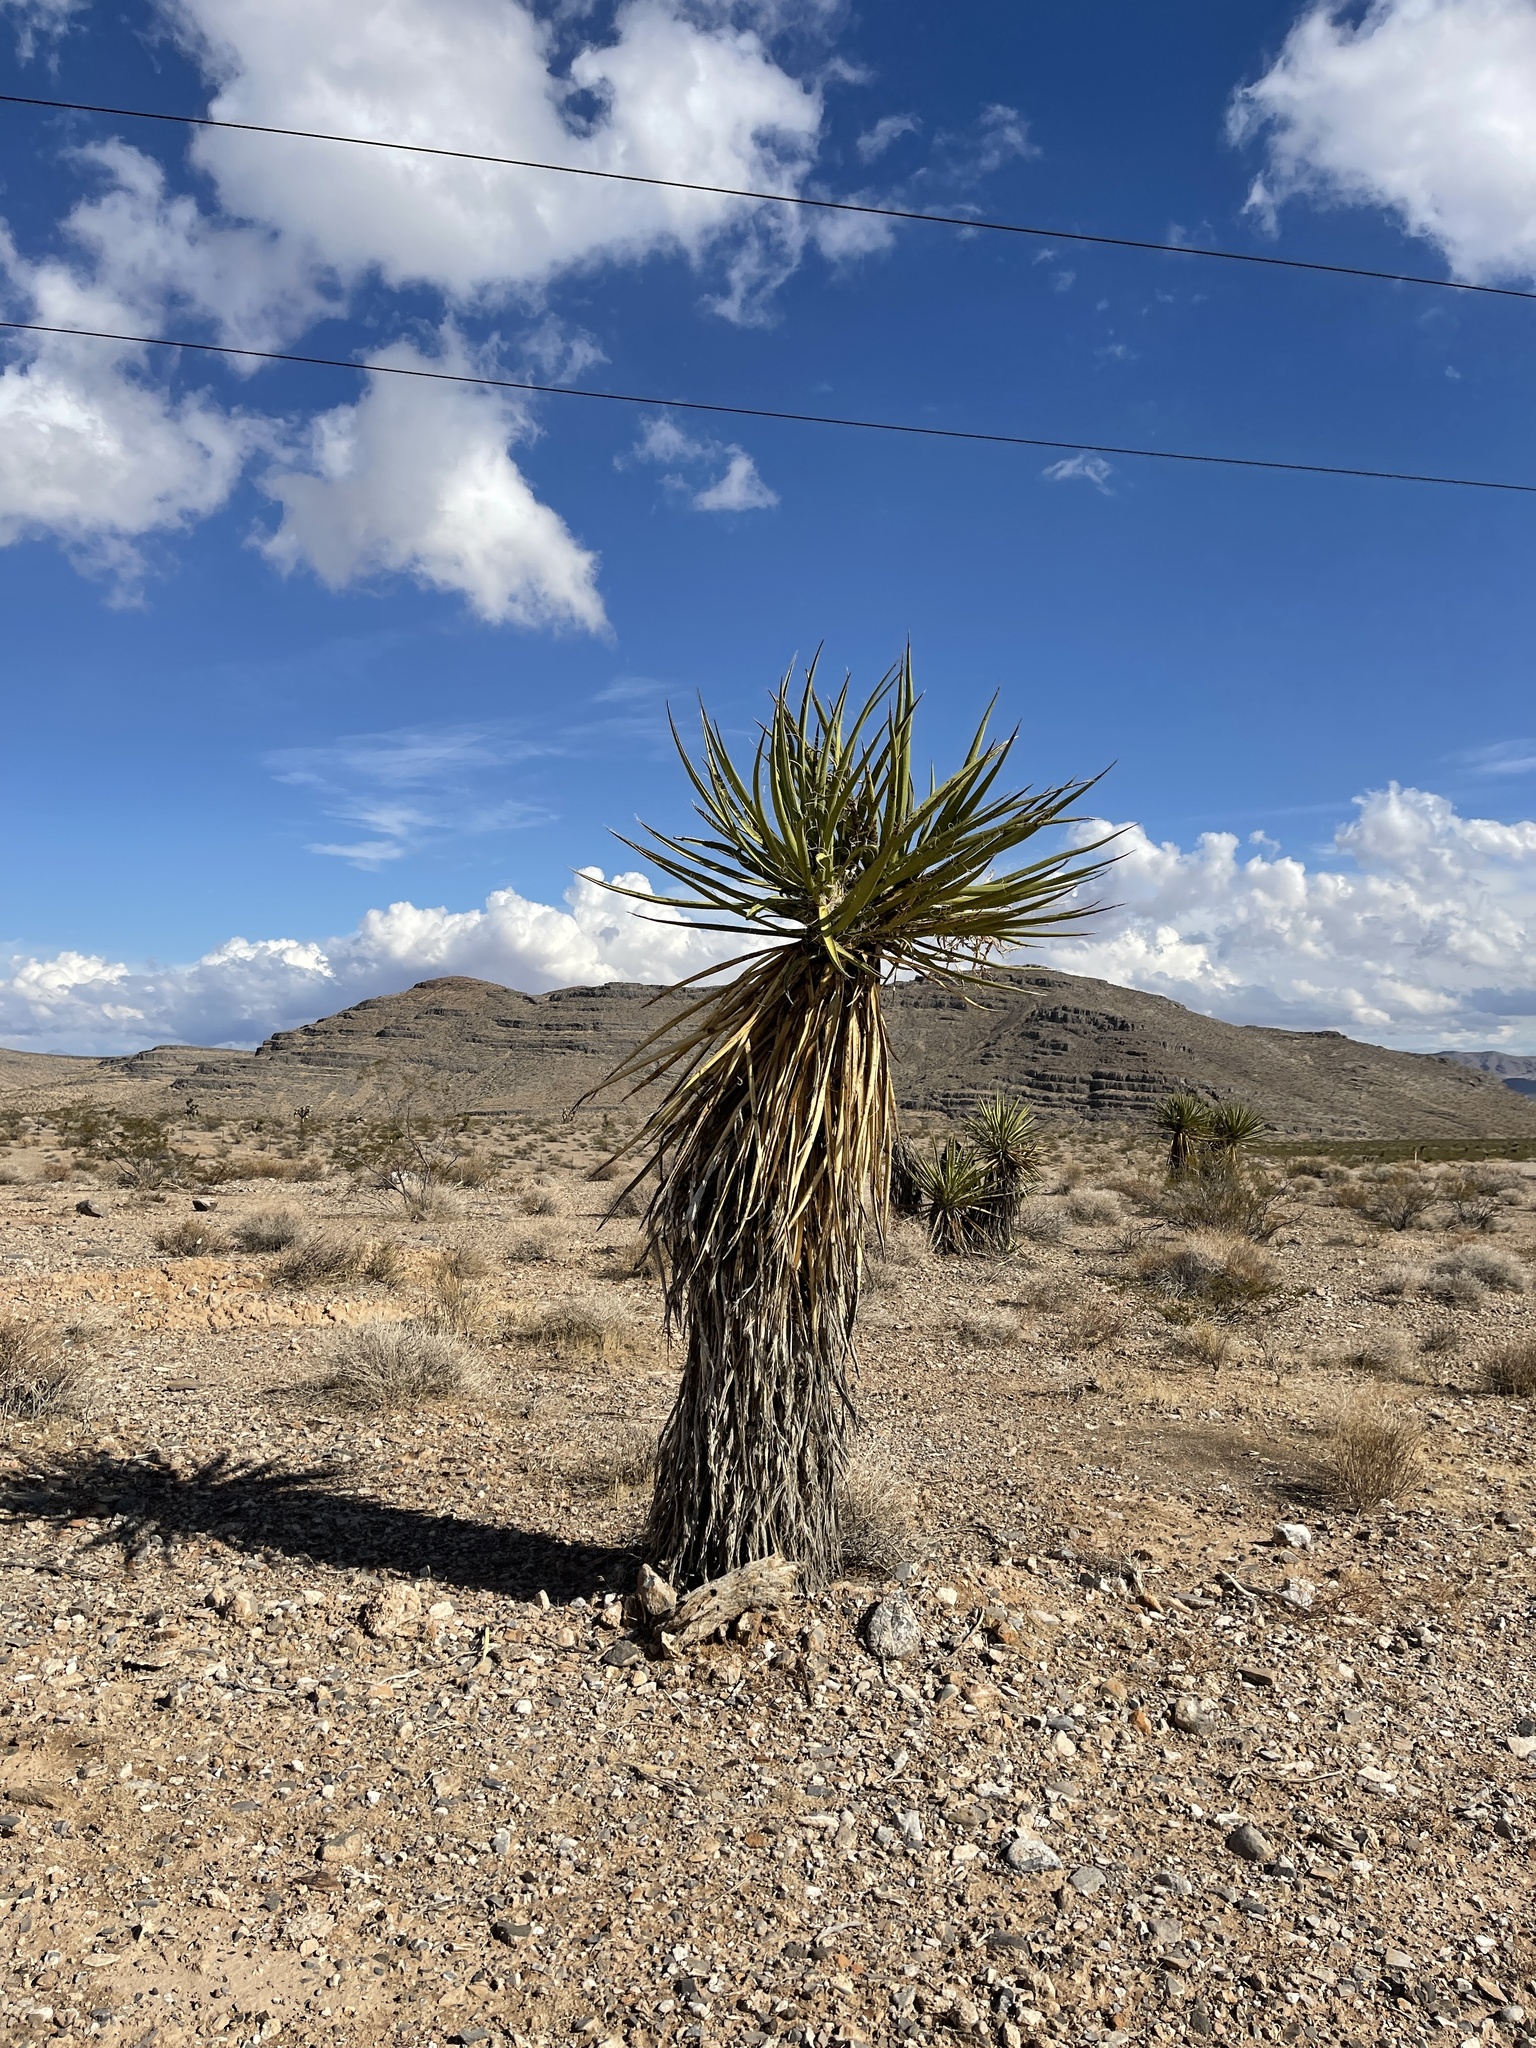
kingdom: Plantae
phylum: Tracheophyta
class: Liliopsida
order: Asparagales
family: Asparagaceae
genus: Yucca
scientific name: Yucca schidigera
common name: Mojave yucca
